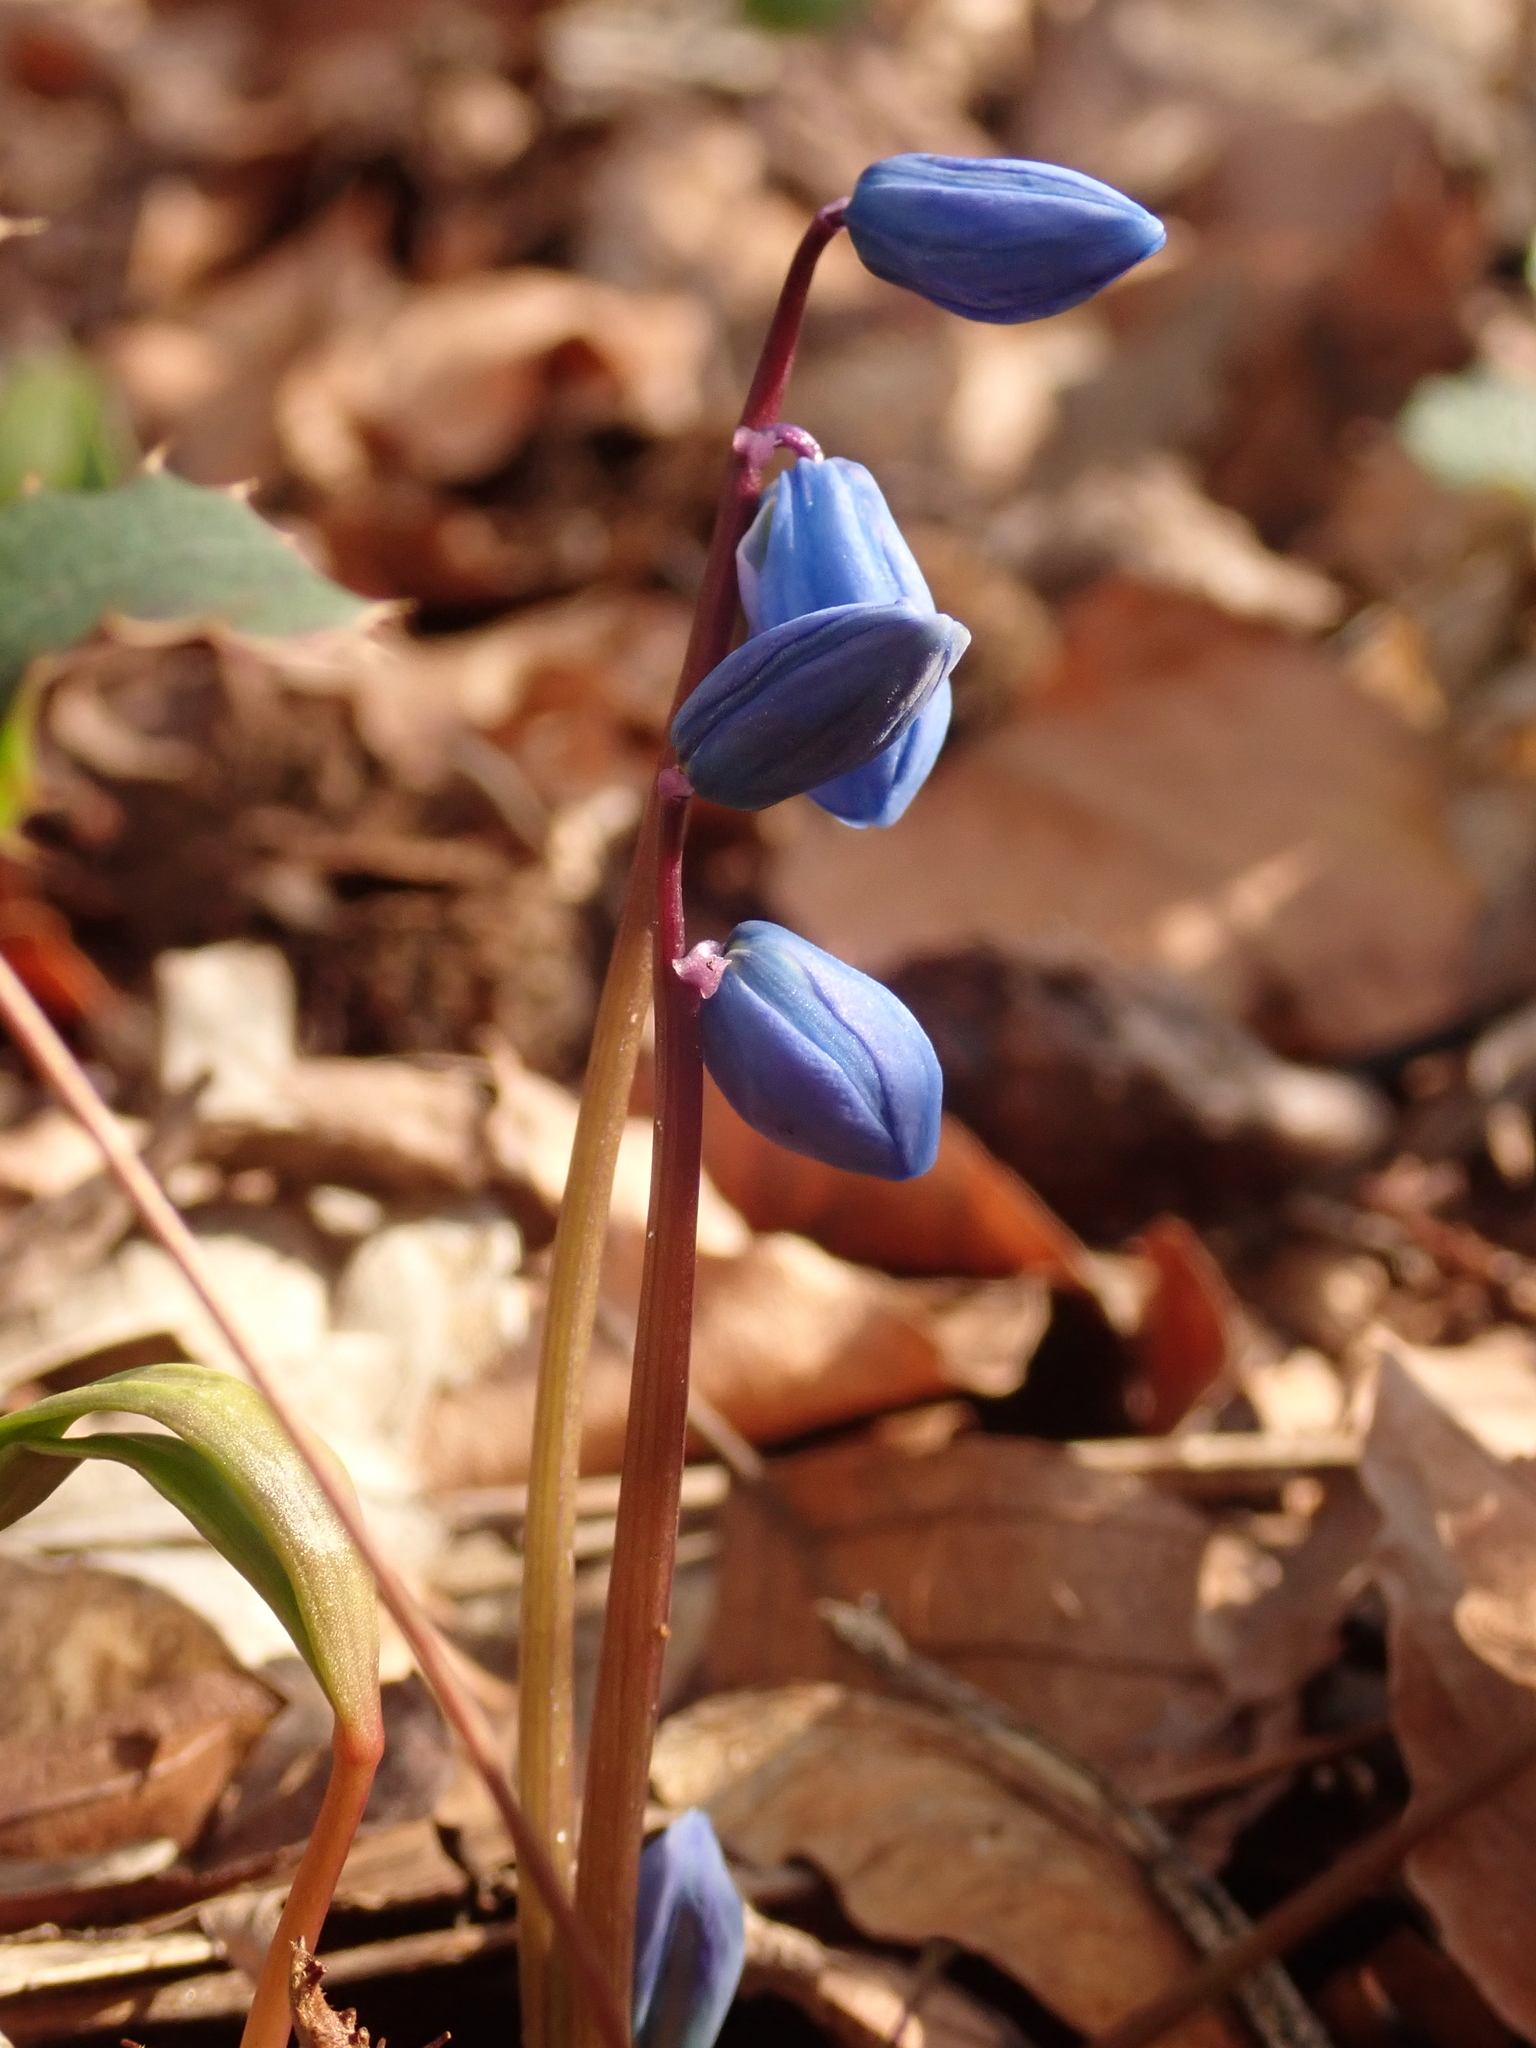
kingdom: Plantae
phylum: Tracheophyta
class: Liliopsida
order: Asparagales
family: Asparagaceae
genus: Scilla
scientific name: Scilla siberica
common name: Siberian squill
